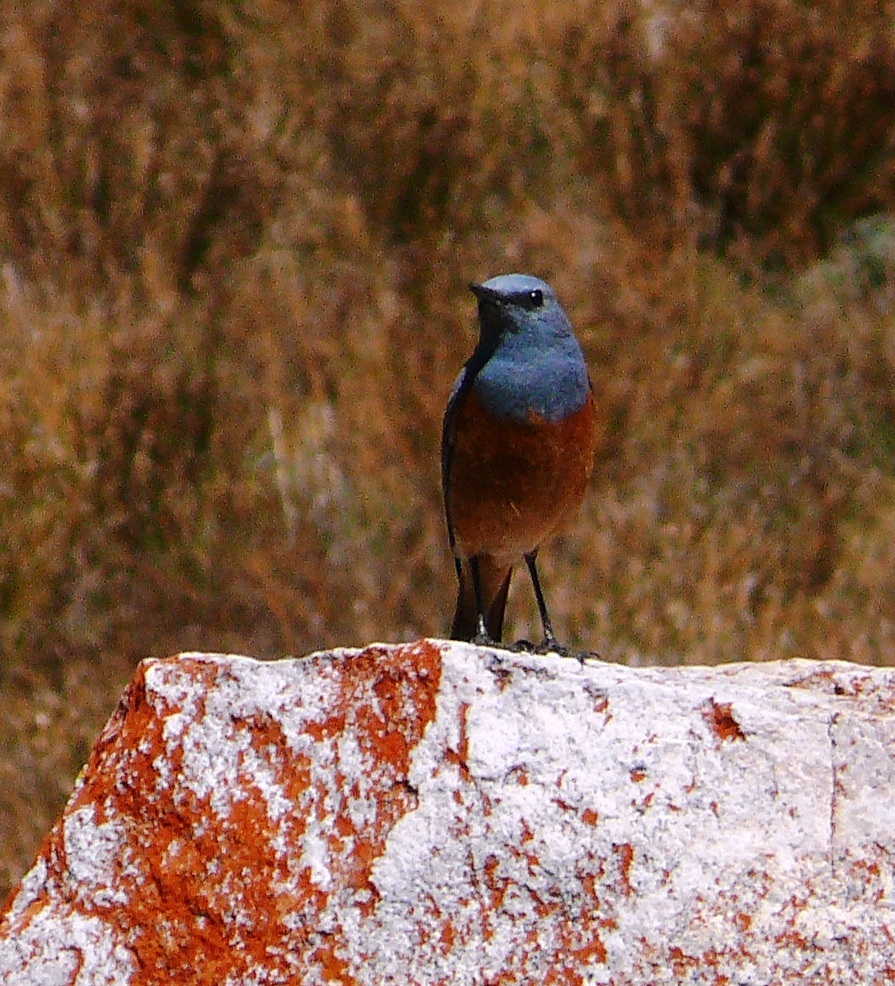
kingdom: Animalia
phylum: Chordata
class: Aves
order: Passeriformes
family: Muscicapidae
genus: Monticola
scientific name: Monticola explorator
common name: Sentinel rock thrush
